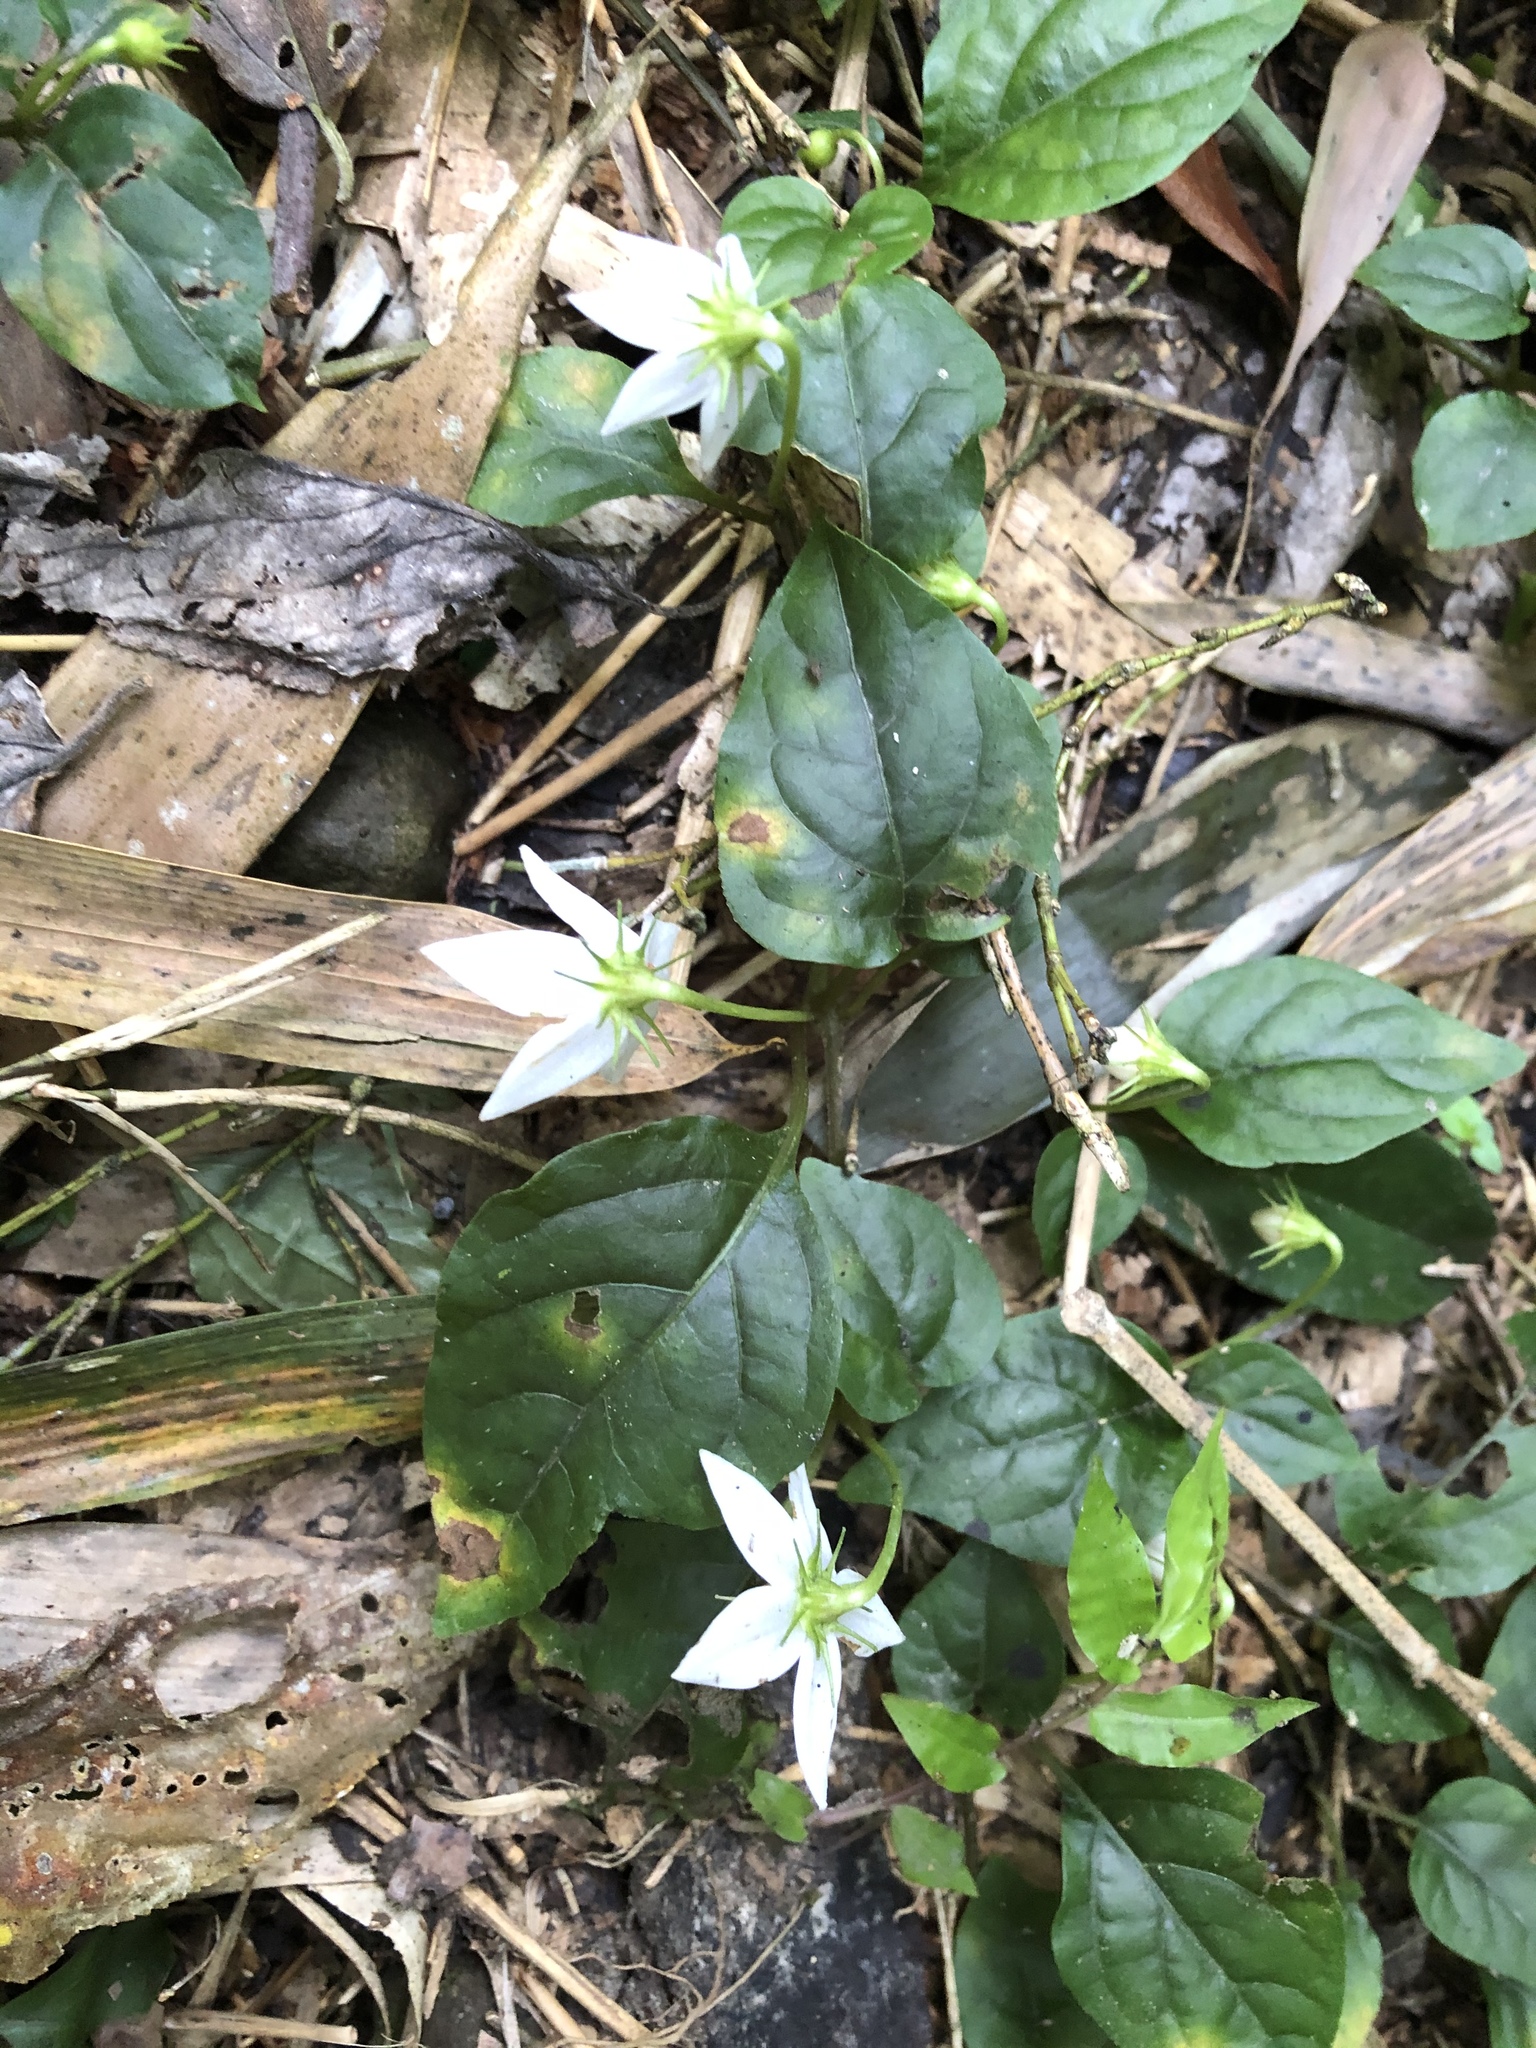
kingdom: Plantae
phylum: Tracheophyta
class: Magnoliopsida
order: Solanales
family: Solanaceae
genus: Lycianthes
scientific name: Lycianthes lysimachioides
